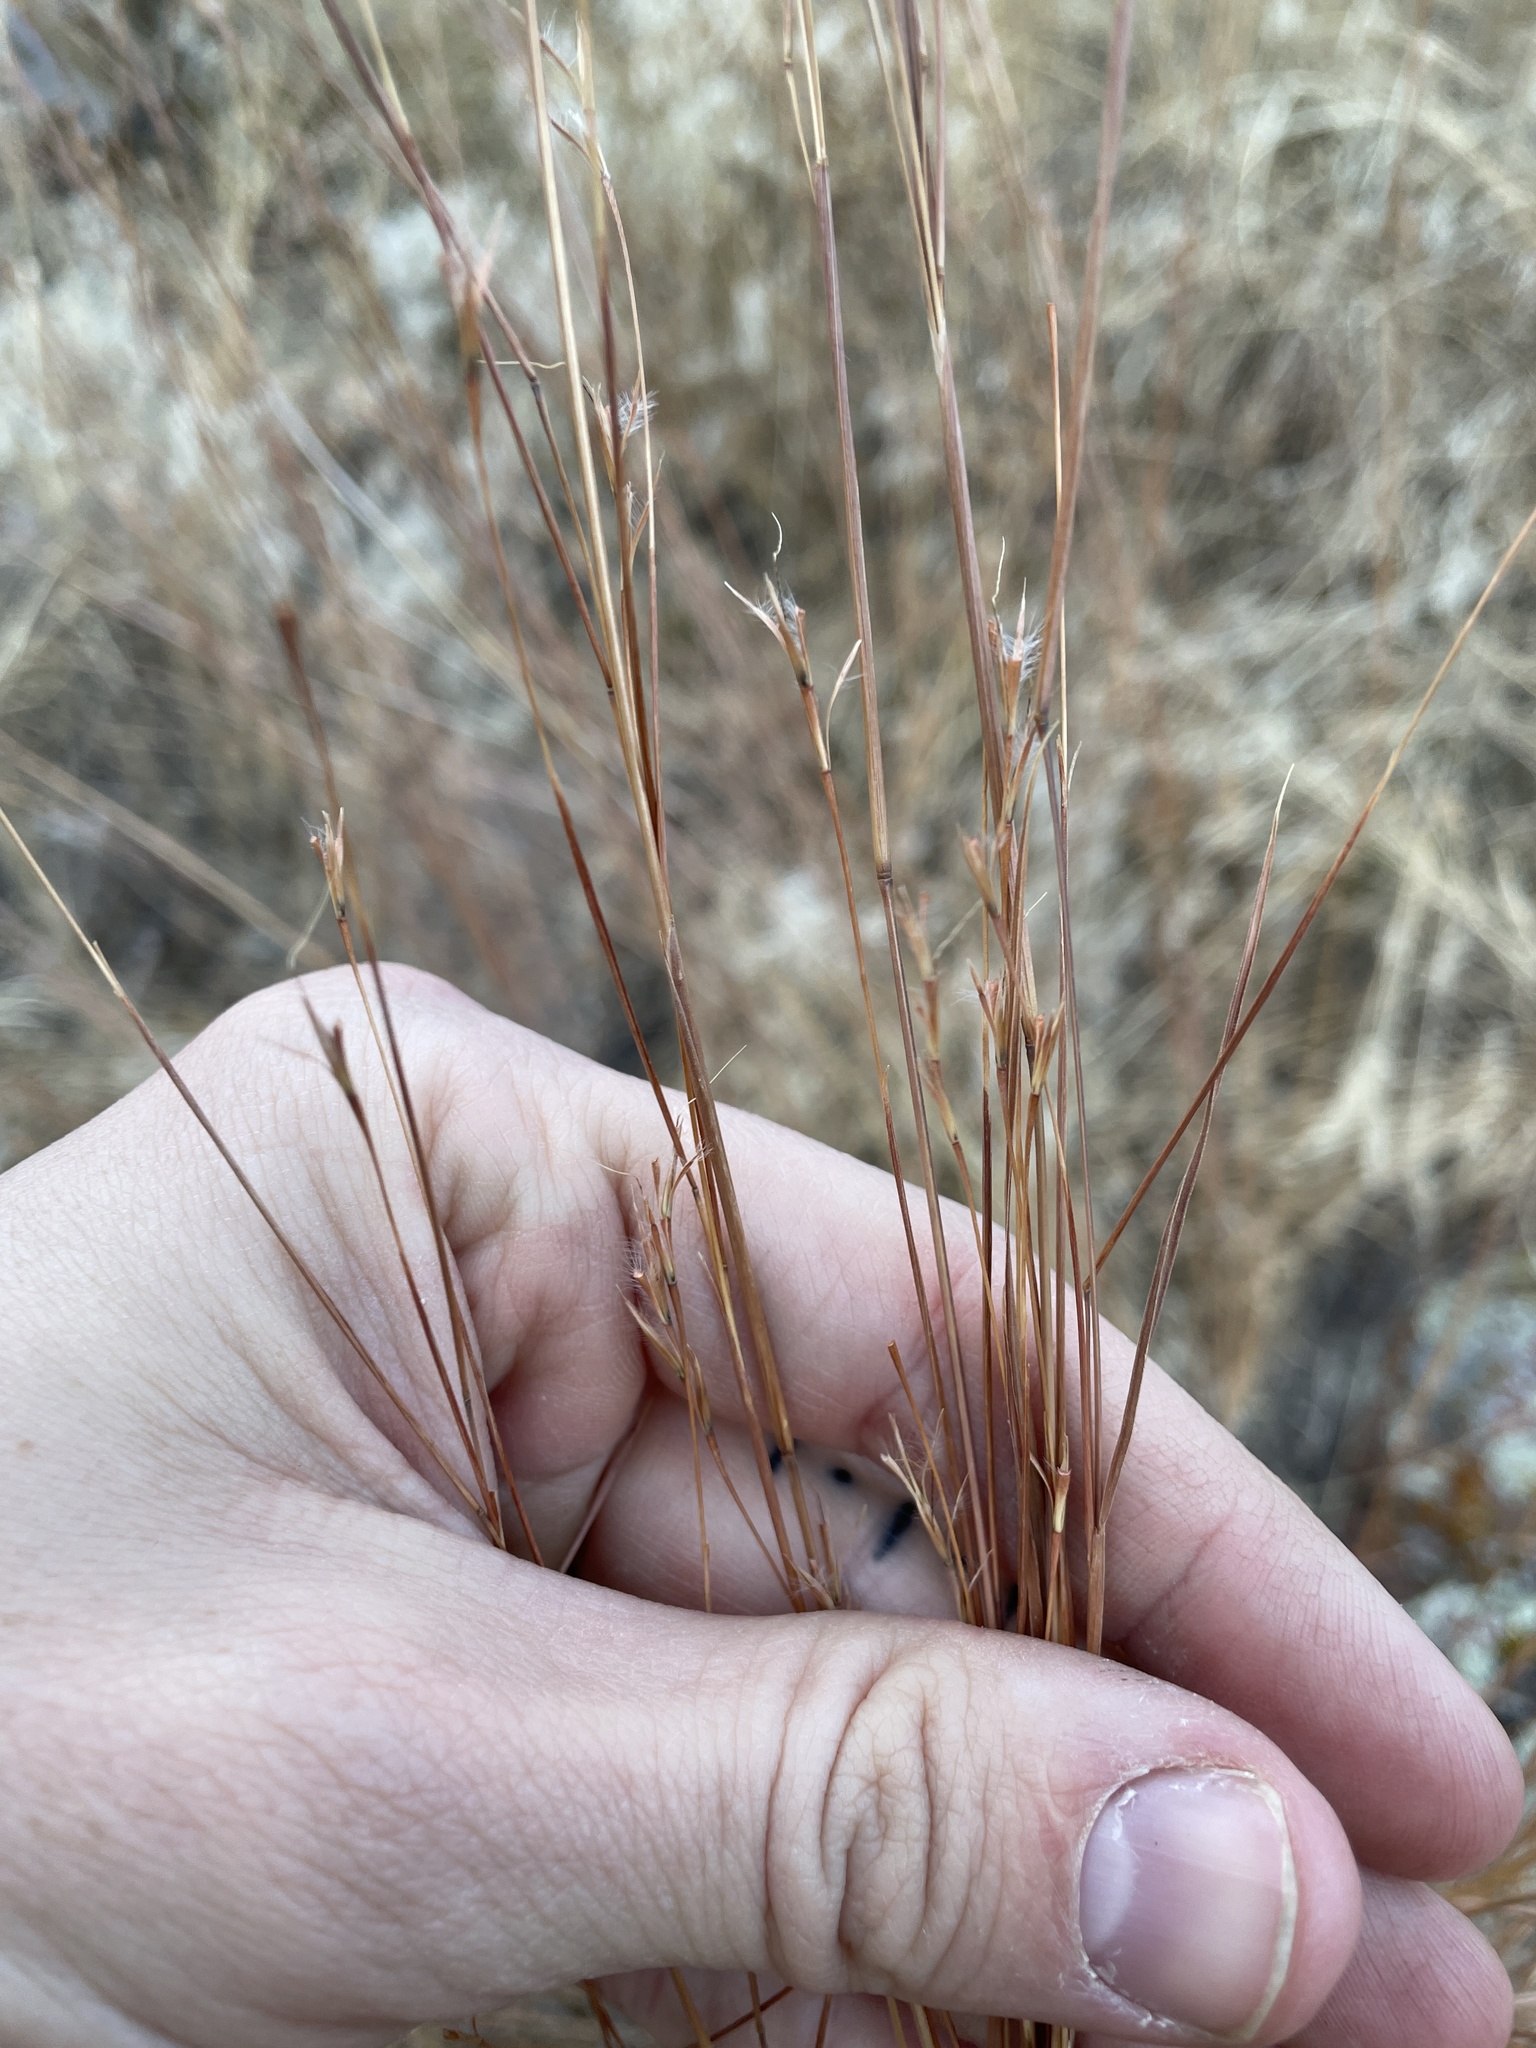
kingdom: Plantae
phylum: Tracheophyta
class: Liliopsida
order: Poales
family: Poaceae
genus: Schizachyrium
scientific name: Schizachyrium scoparium
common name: Little bluestem
